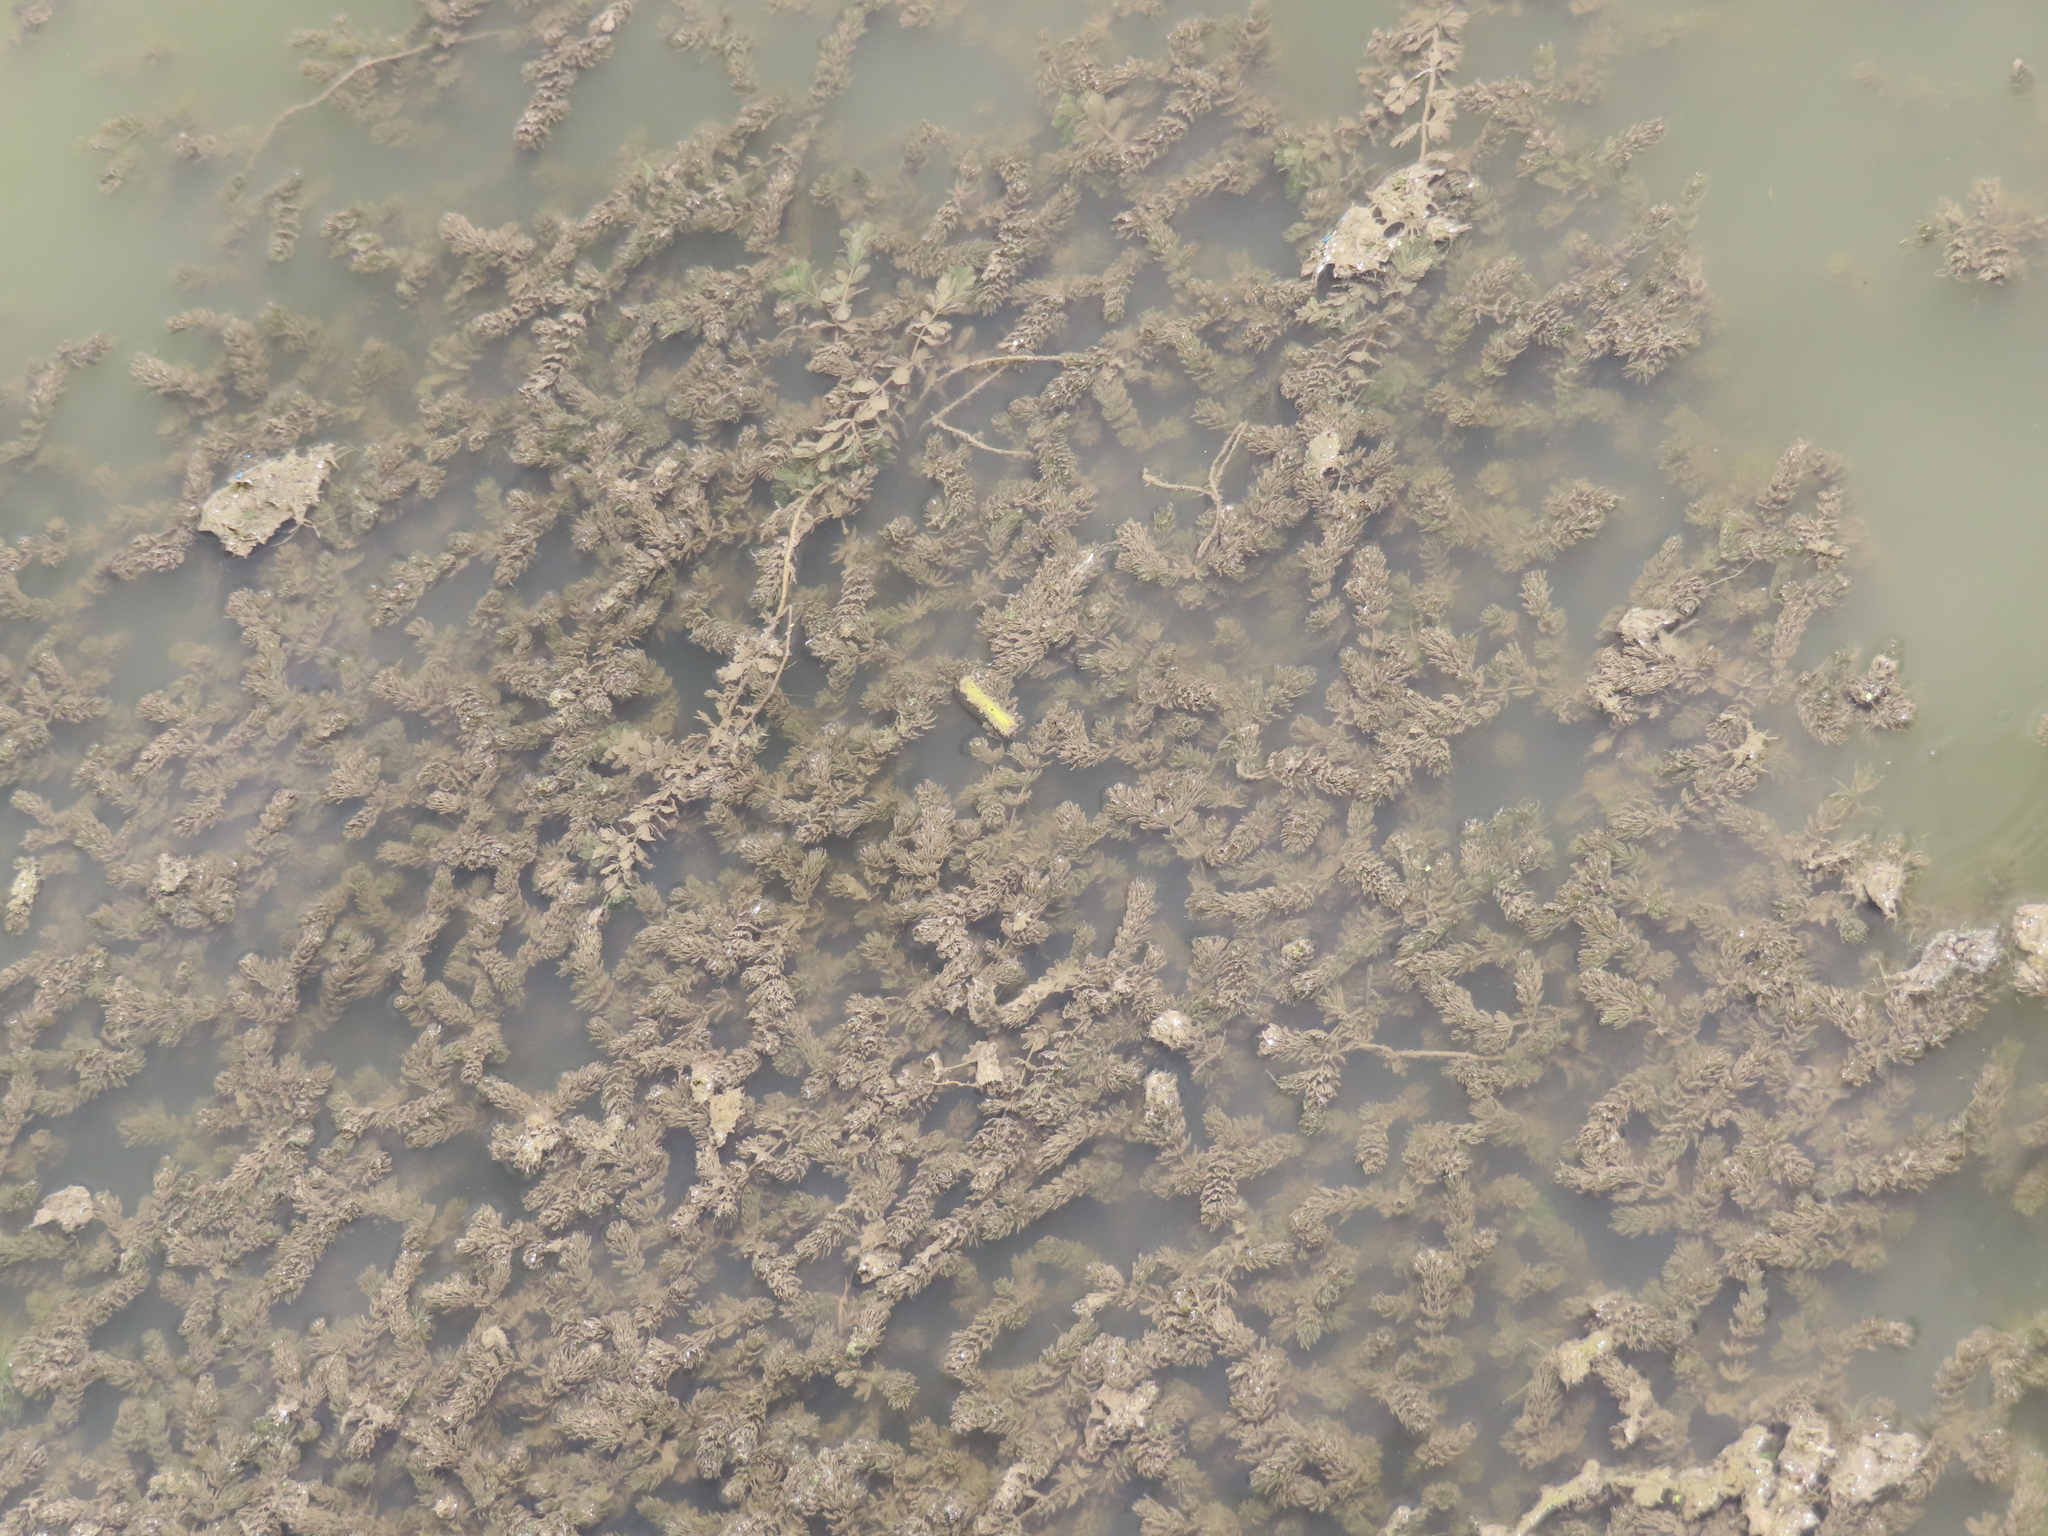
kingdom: Plantae
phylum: Tracheophyta
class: Magnoliopsida
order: Ceratophyllales
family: Ceratophyllaceae
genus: Ceratophyllum
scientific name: Ceratophyllum demersum
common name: Rigid hornwort
